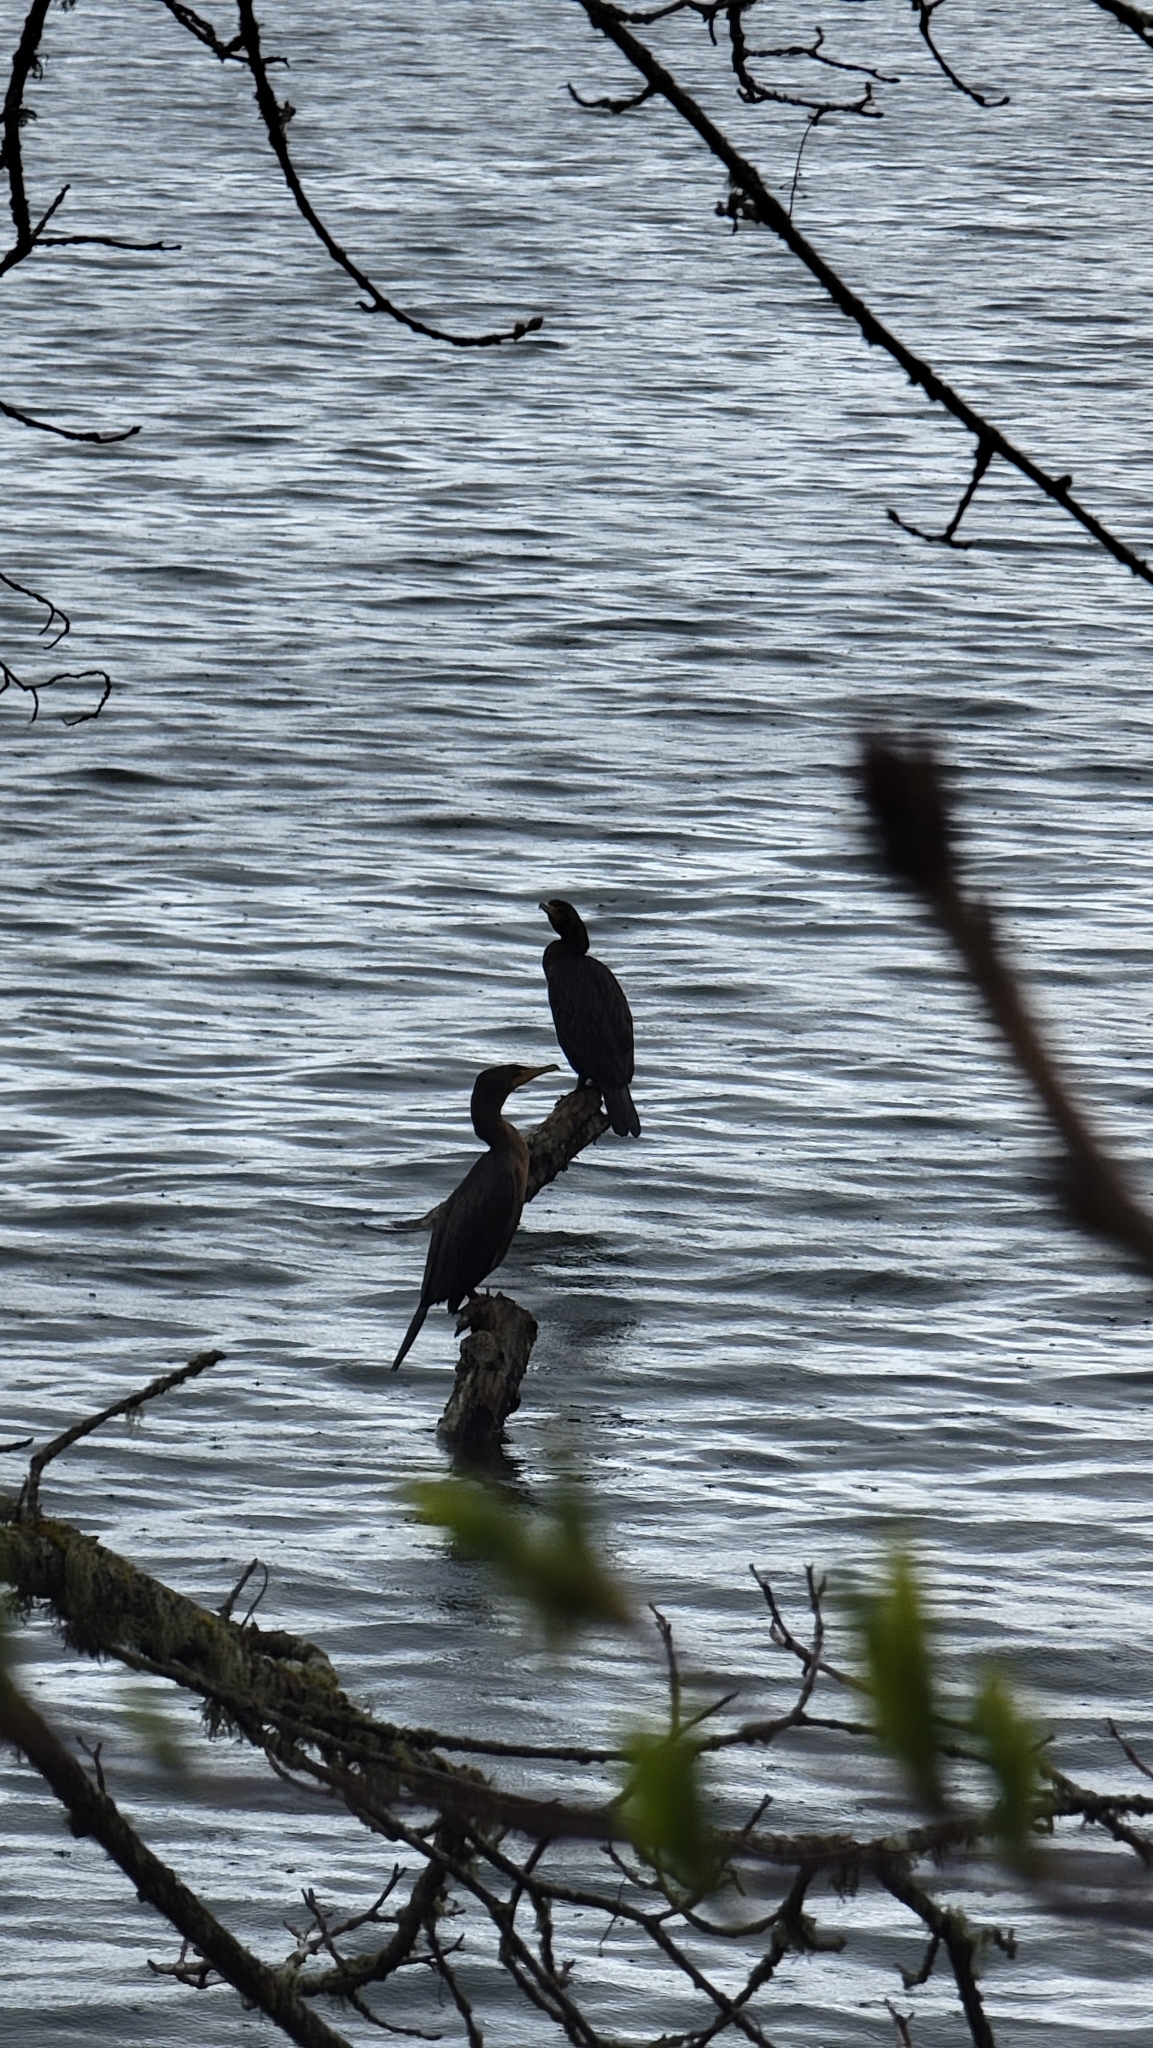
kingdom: Animalia
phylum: Chordata
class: Aves
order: Suliformes
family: Phalacrocoracidae
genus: Phalacrocorax
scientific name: Phalacrocorax auritus
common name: Double-crested cormorant
